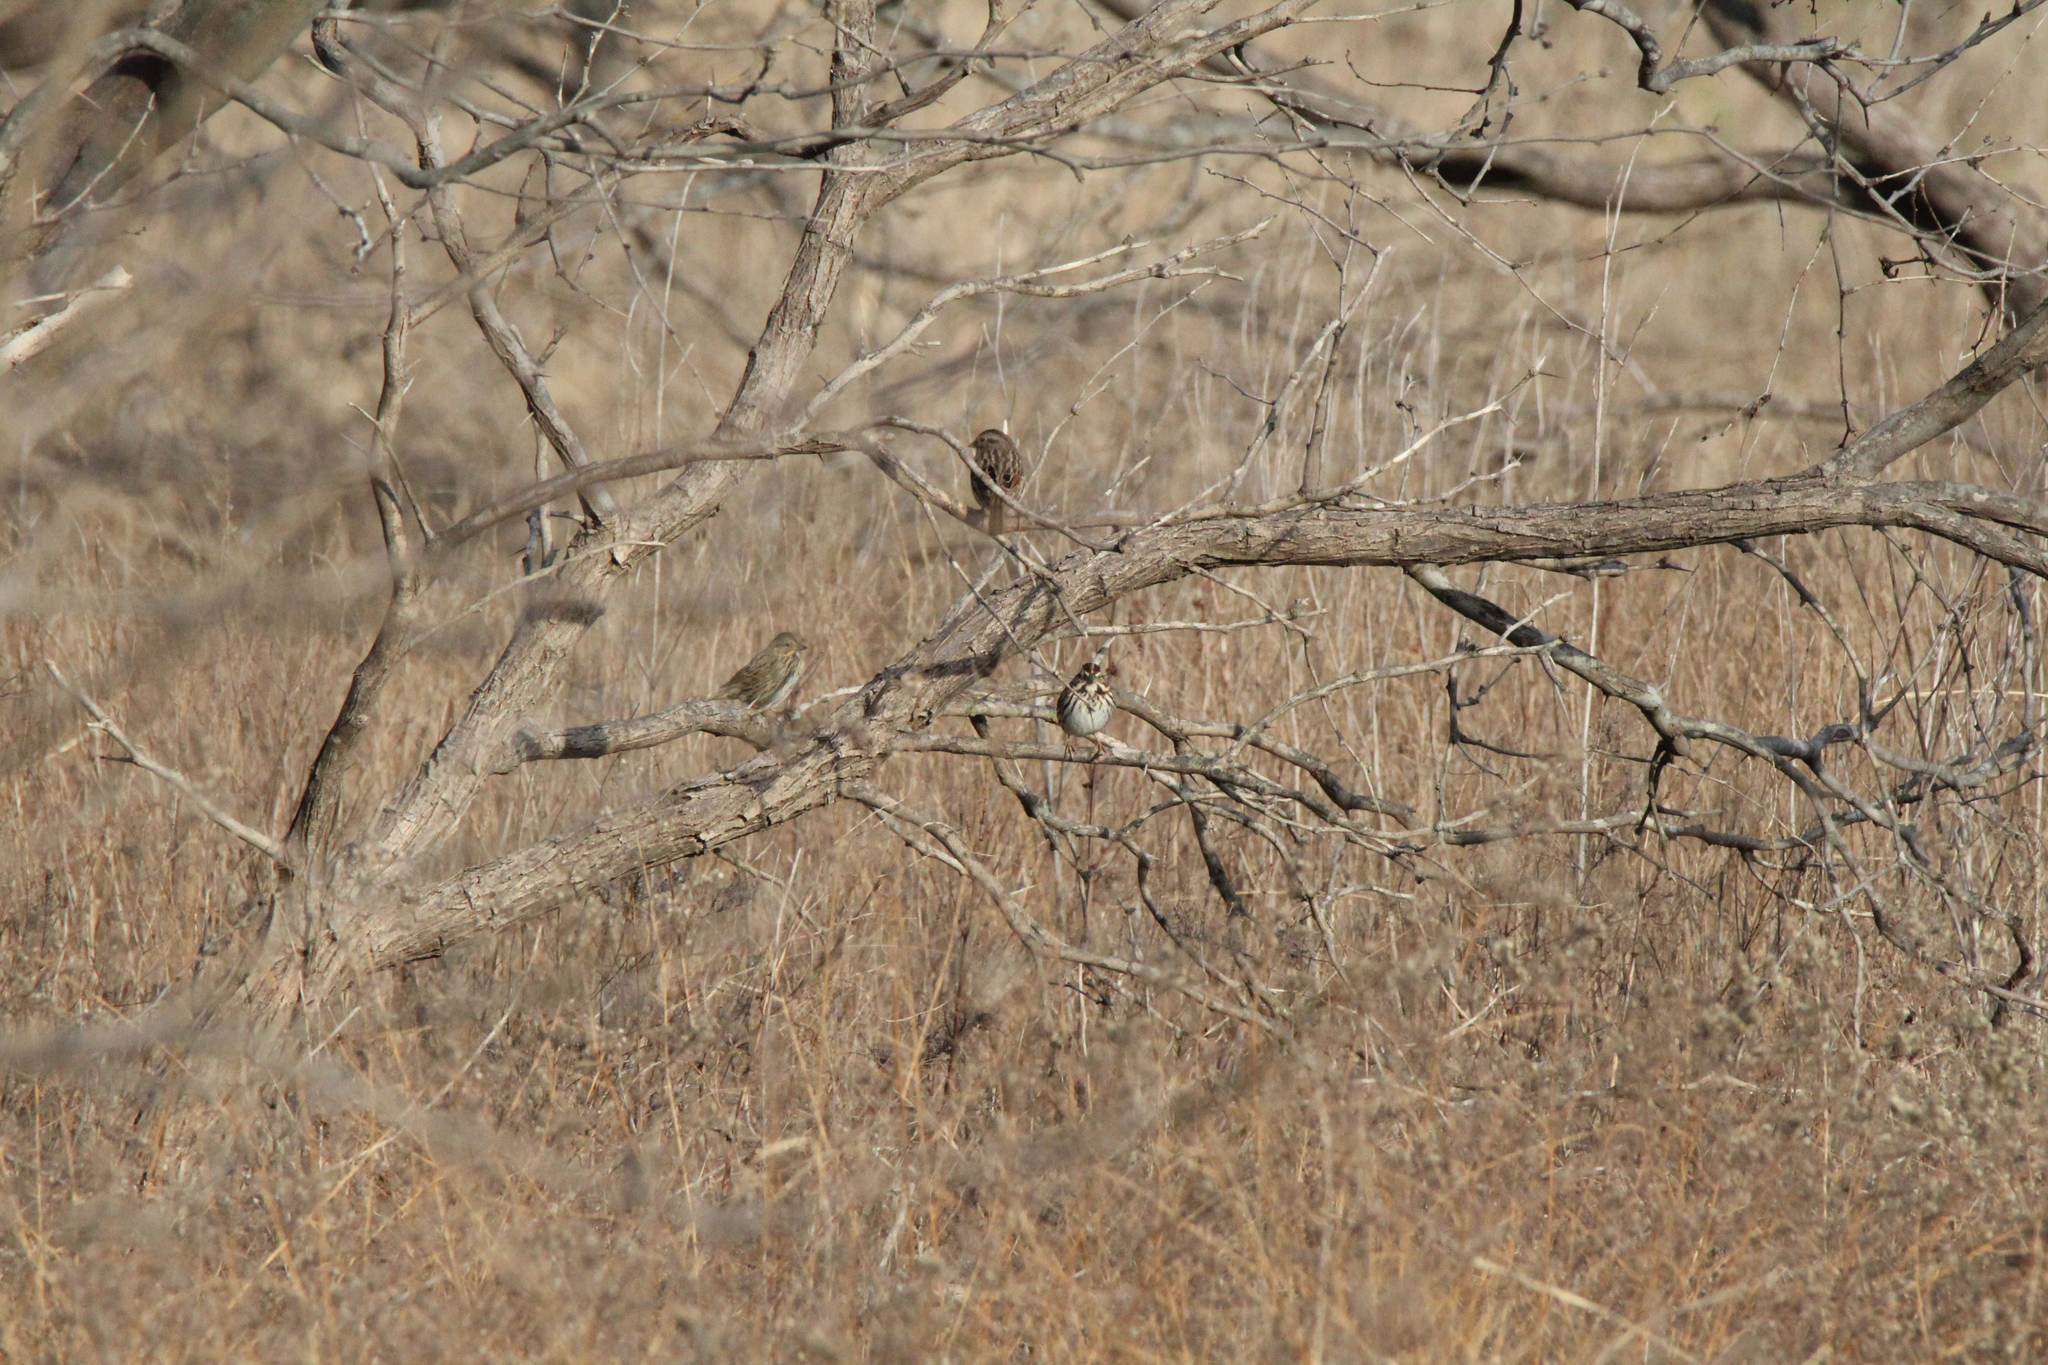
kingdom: Animalia
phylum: Chordata
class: Aves
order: Passeriformes
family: Passerellidae
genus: Melospiza
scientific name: Melospiza melodia
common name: Song sparrow
